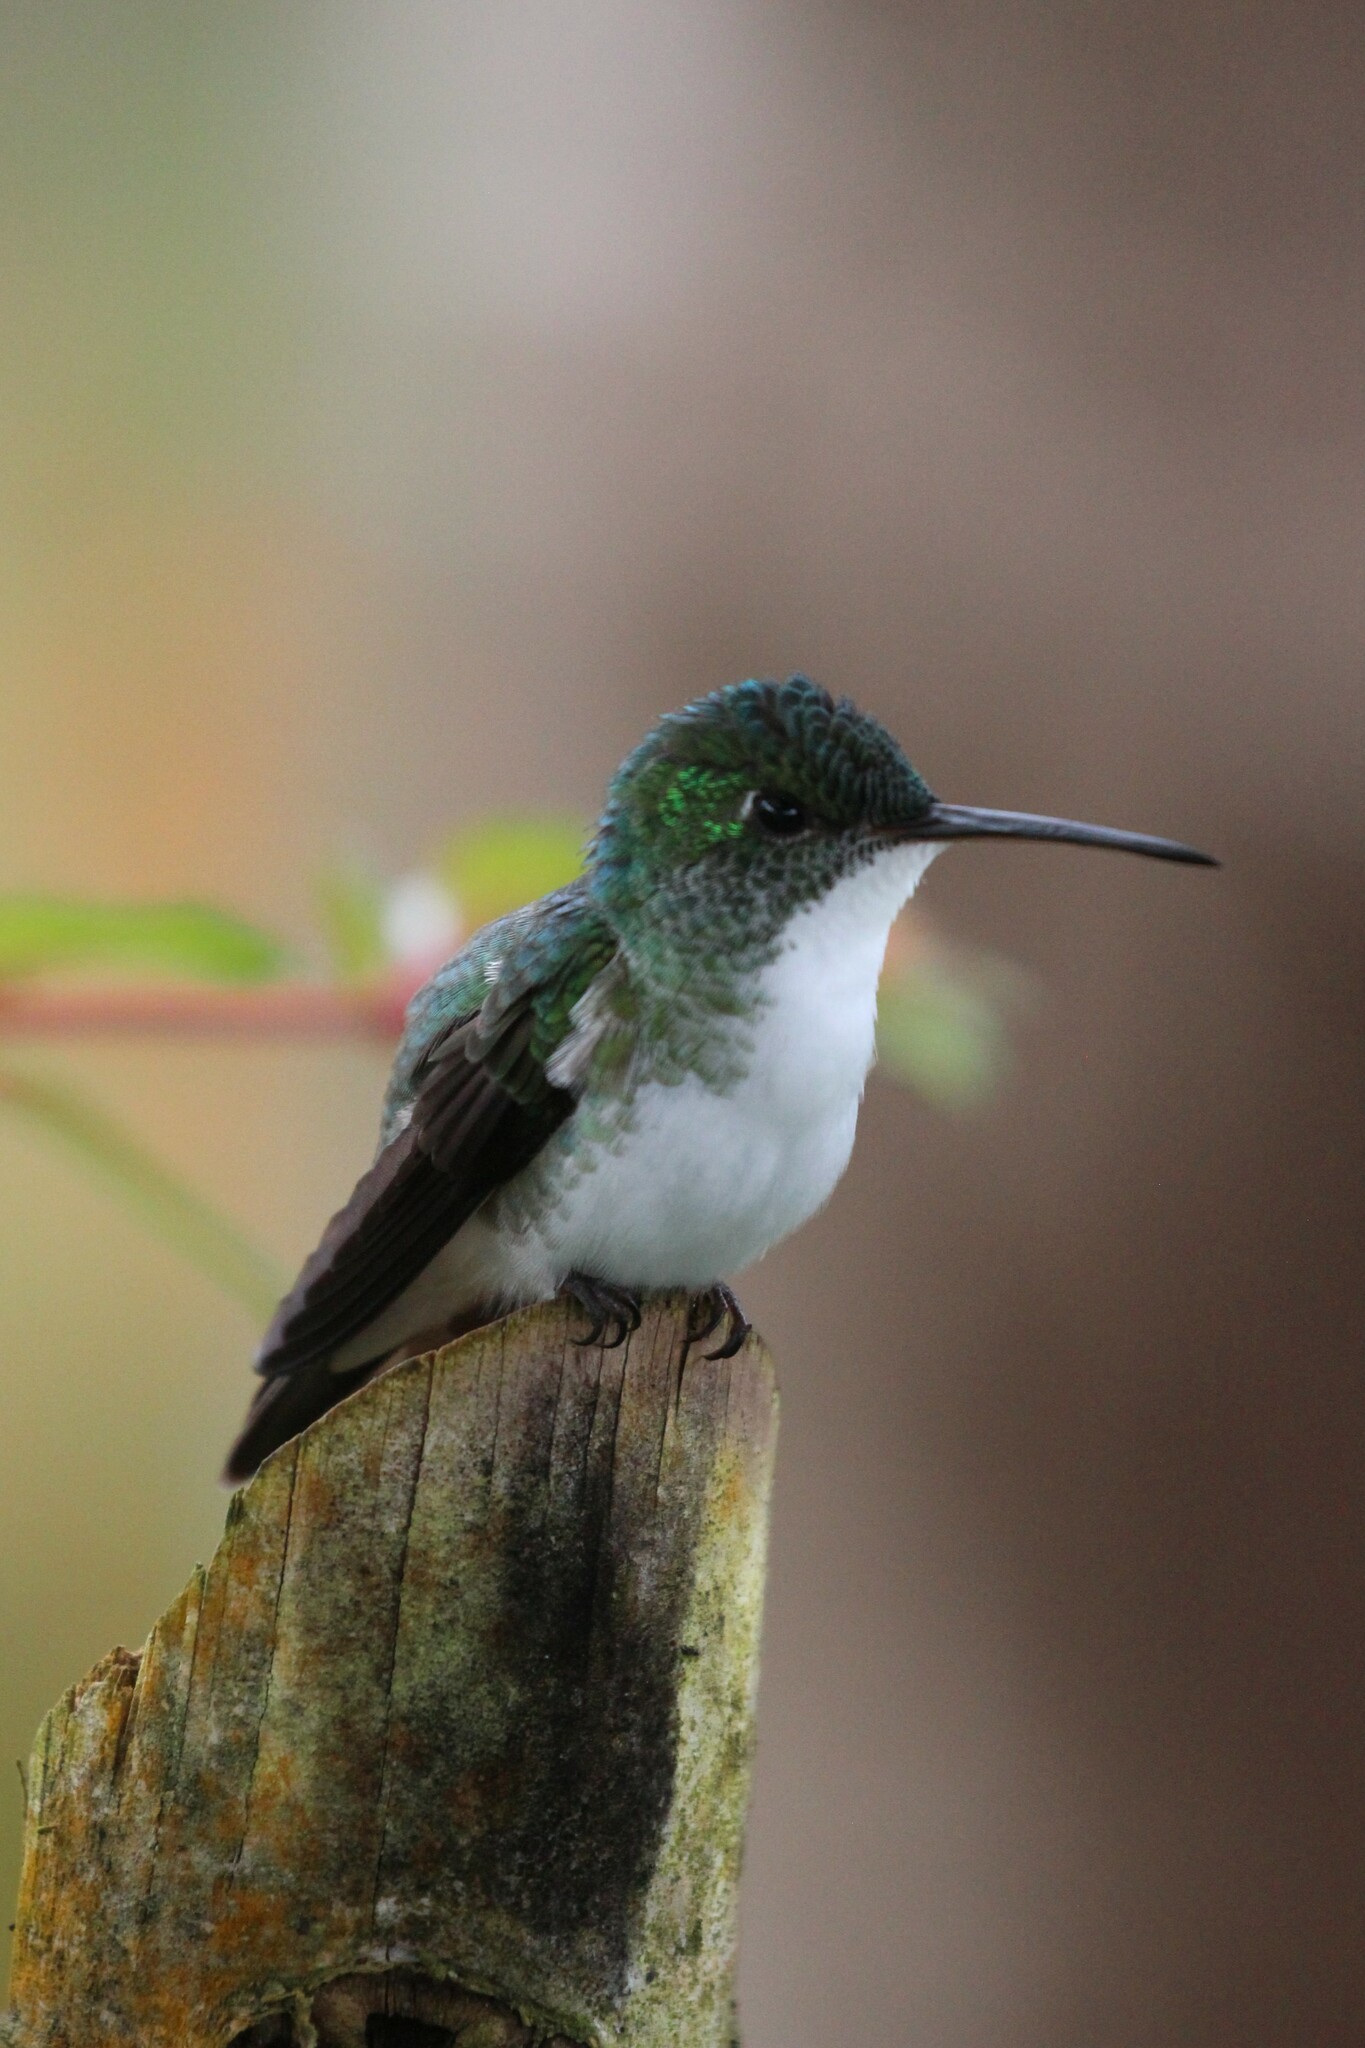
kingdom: Animalia
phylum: Chordata
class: Aves
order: Apodiformes
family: Trochilidae
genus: Uranomitra
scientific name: Uranomitra franciae
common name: Andean emerald
